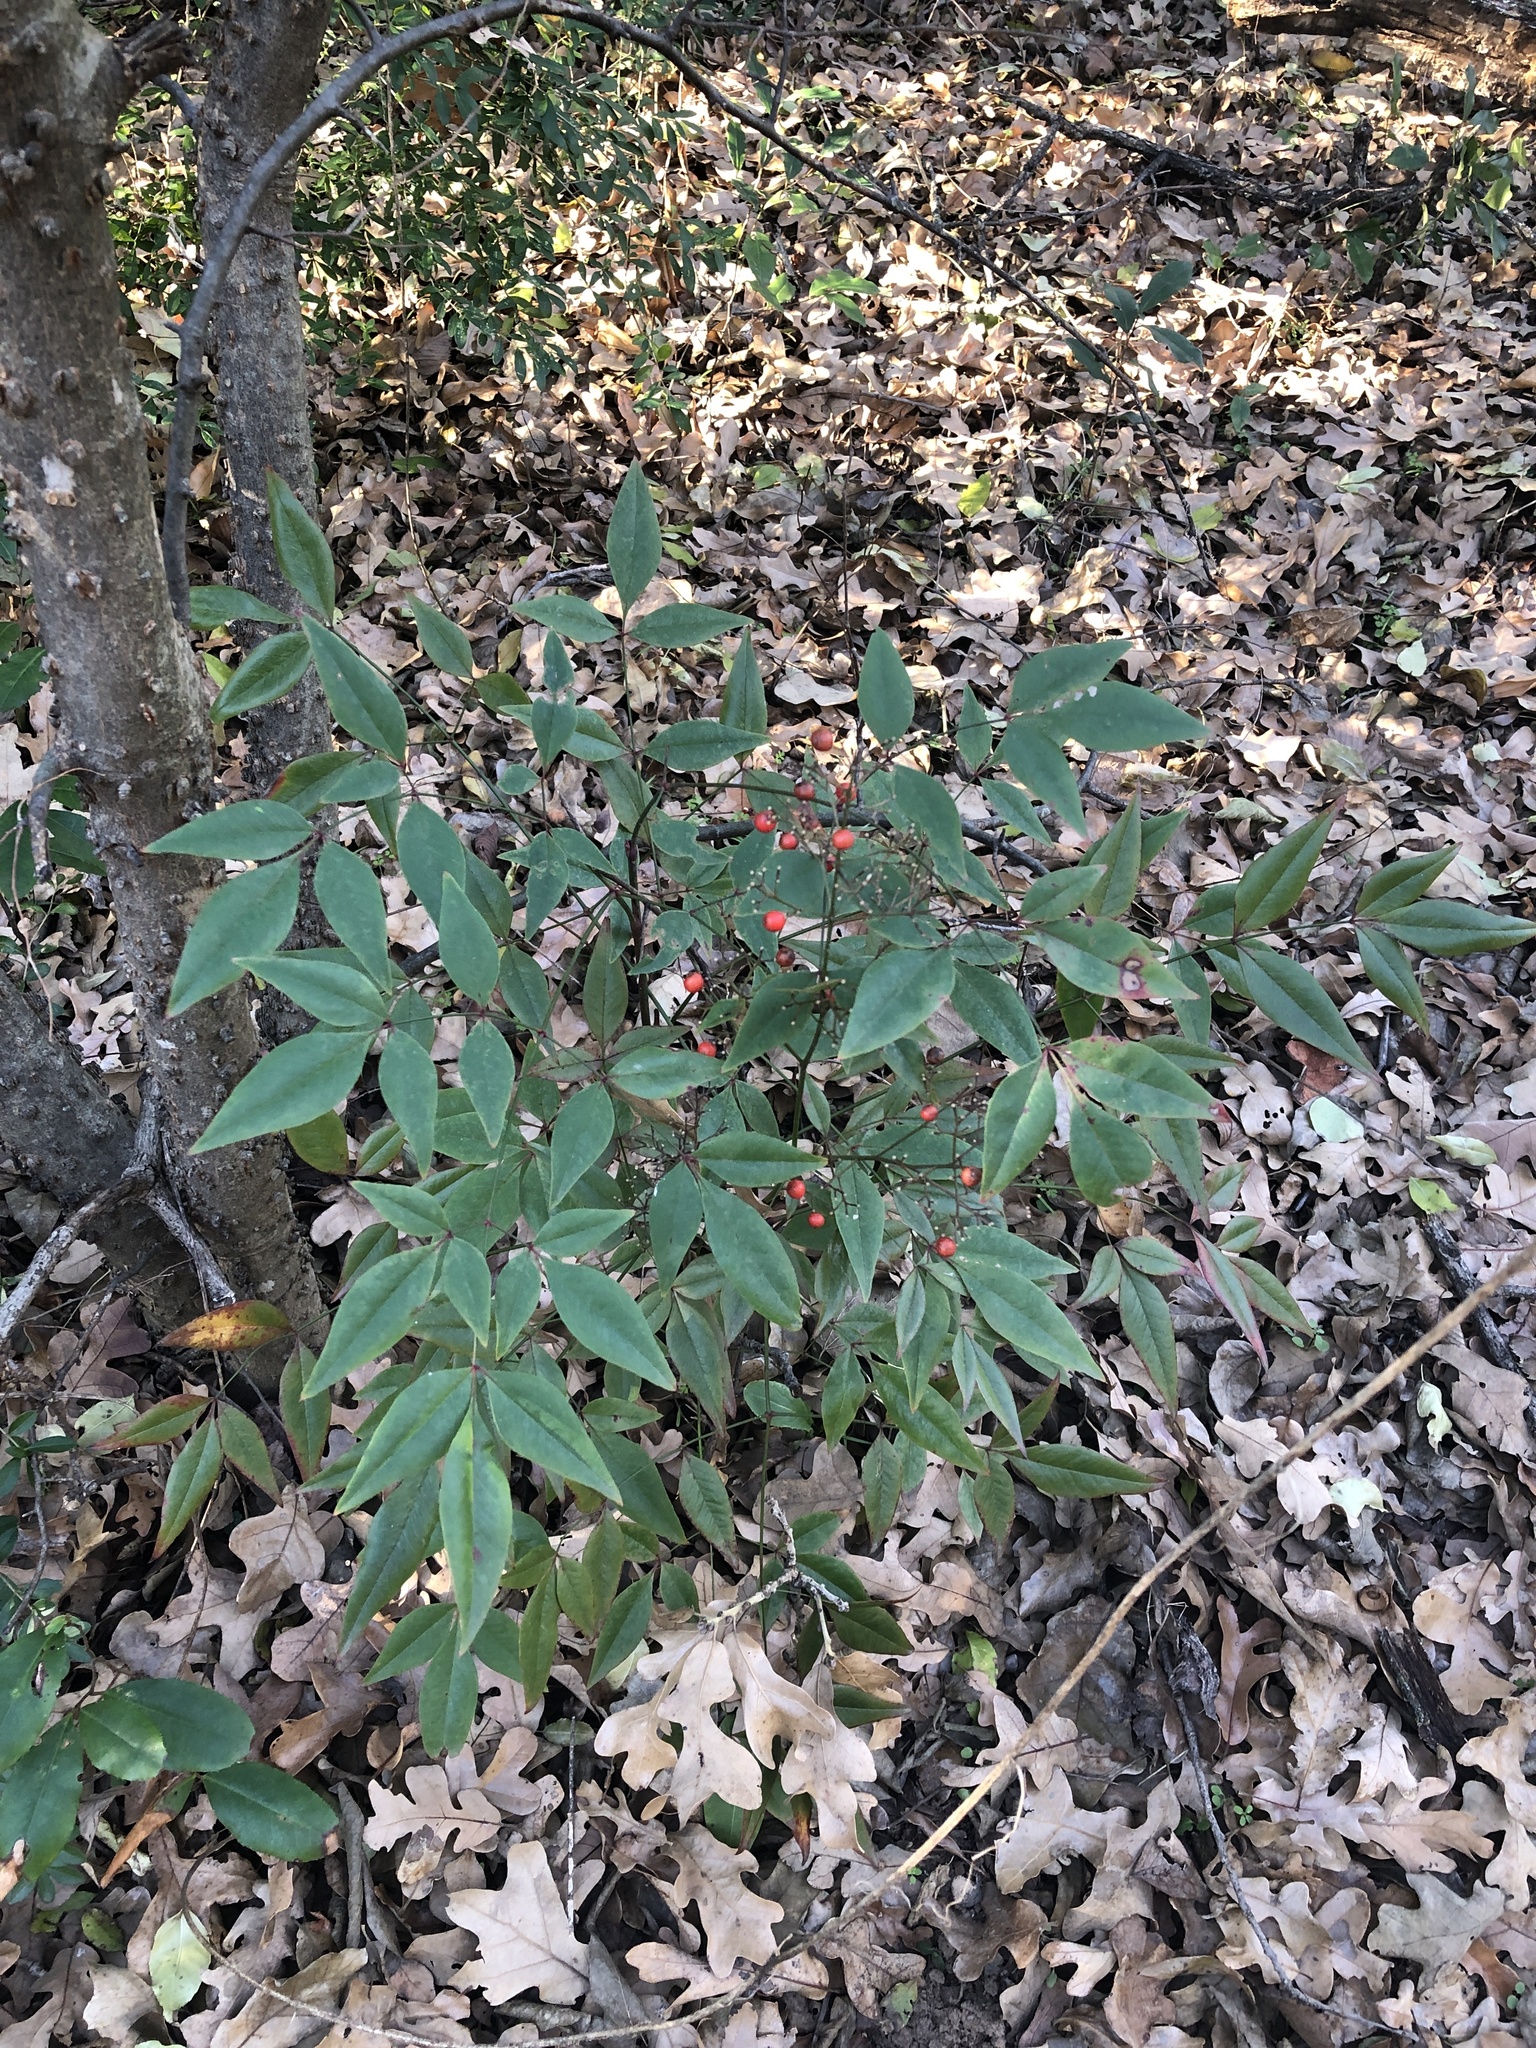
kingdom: Plantae
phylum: Tracheophyta
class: Magnoliopsida
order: Ranunculales
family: Berberidaceae
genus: Nandina
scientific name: Nandina domestica
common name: Sacred bamboo
